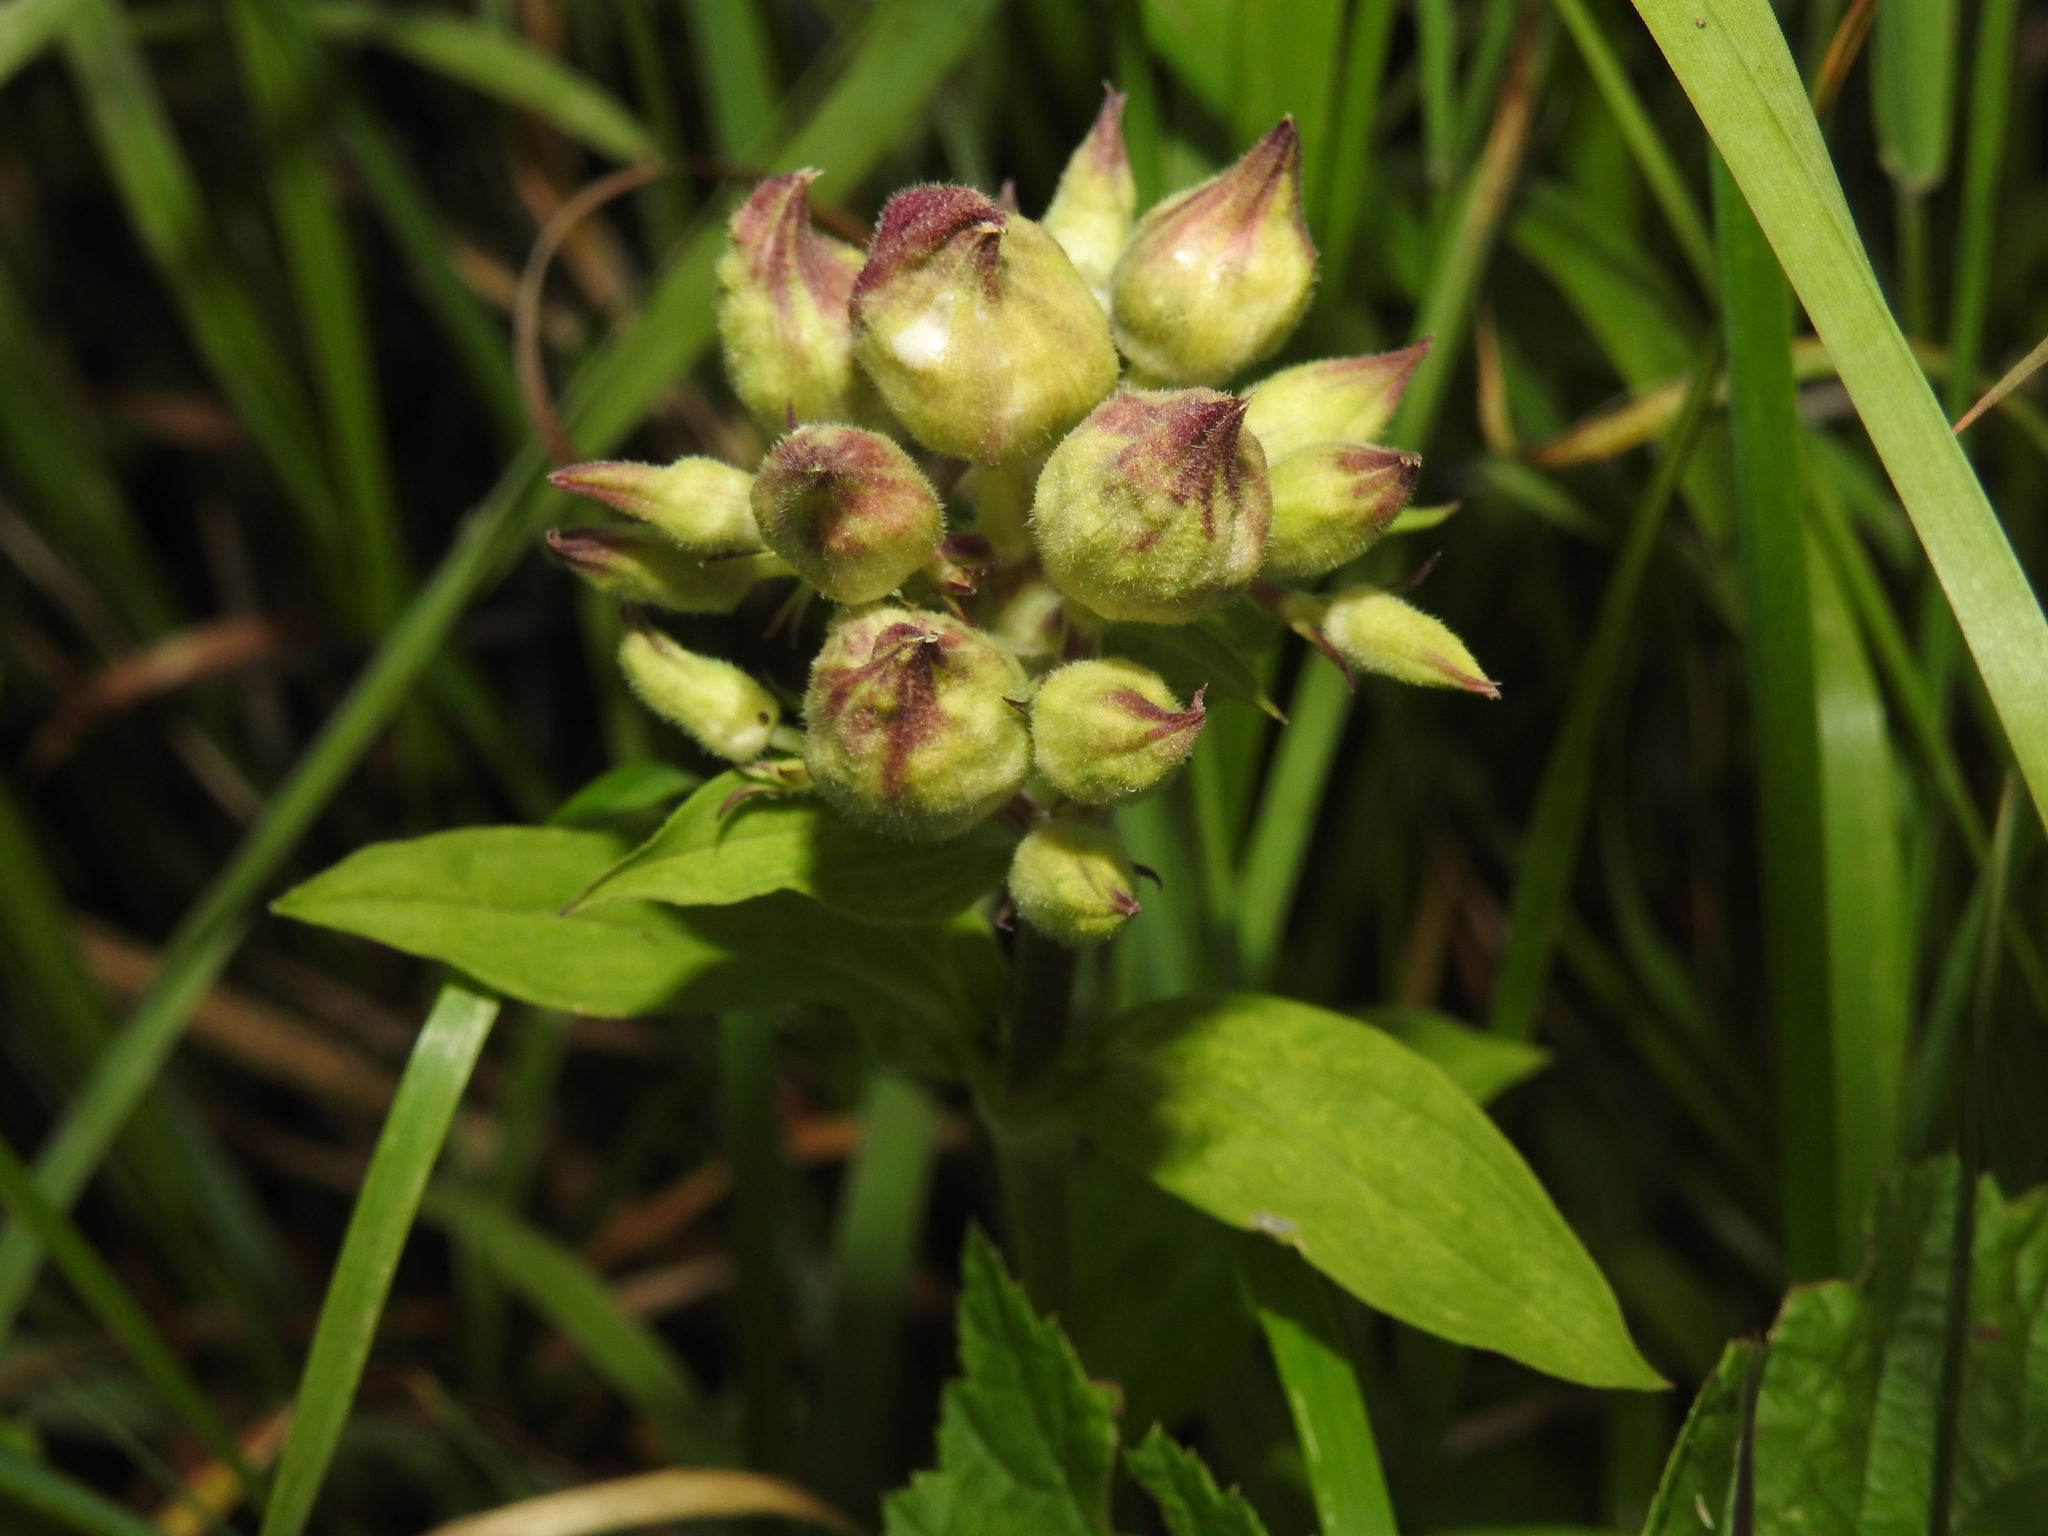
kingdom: Fungi
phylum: Basidiomycota
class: Ustilaginomycetes
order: Urocystidales
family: Glomosporiaceae
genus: Thecaphora
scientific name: Thecaphora saponariae
